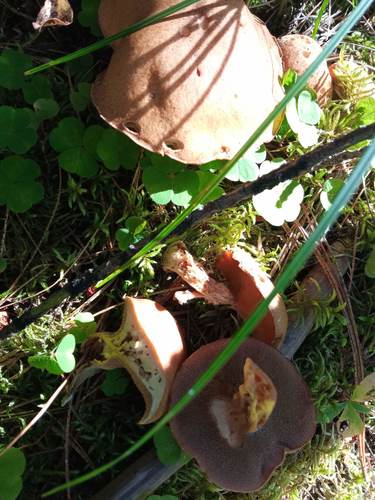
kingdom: Fungi
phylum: Basidiomycota
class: Agaricomycetes
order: Boletales
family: Suillaceae
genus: Suillus
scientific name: Suillus punctipes
